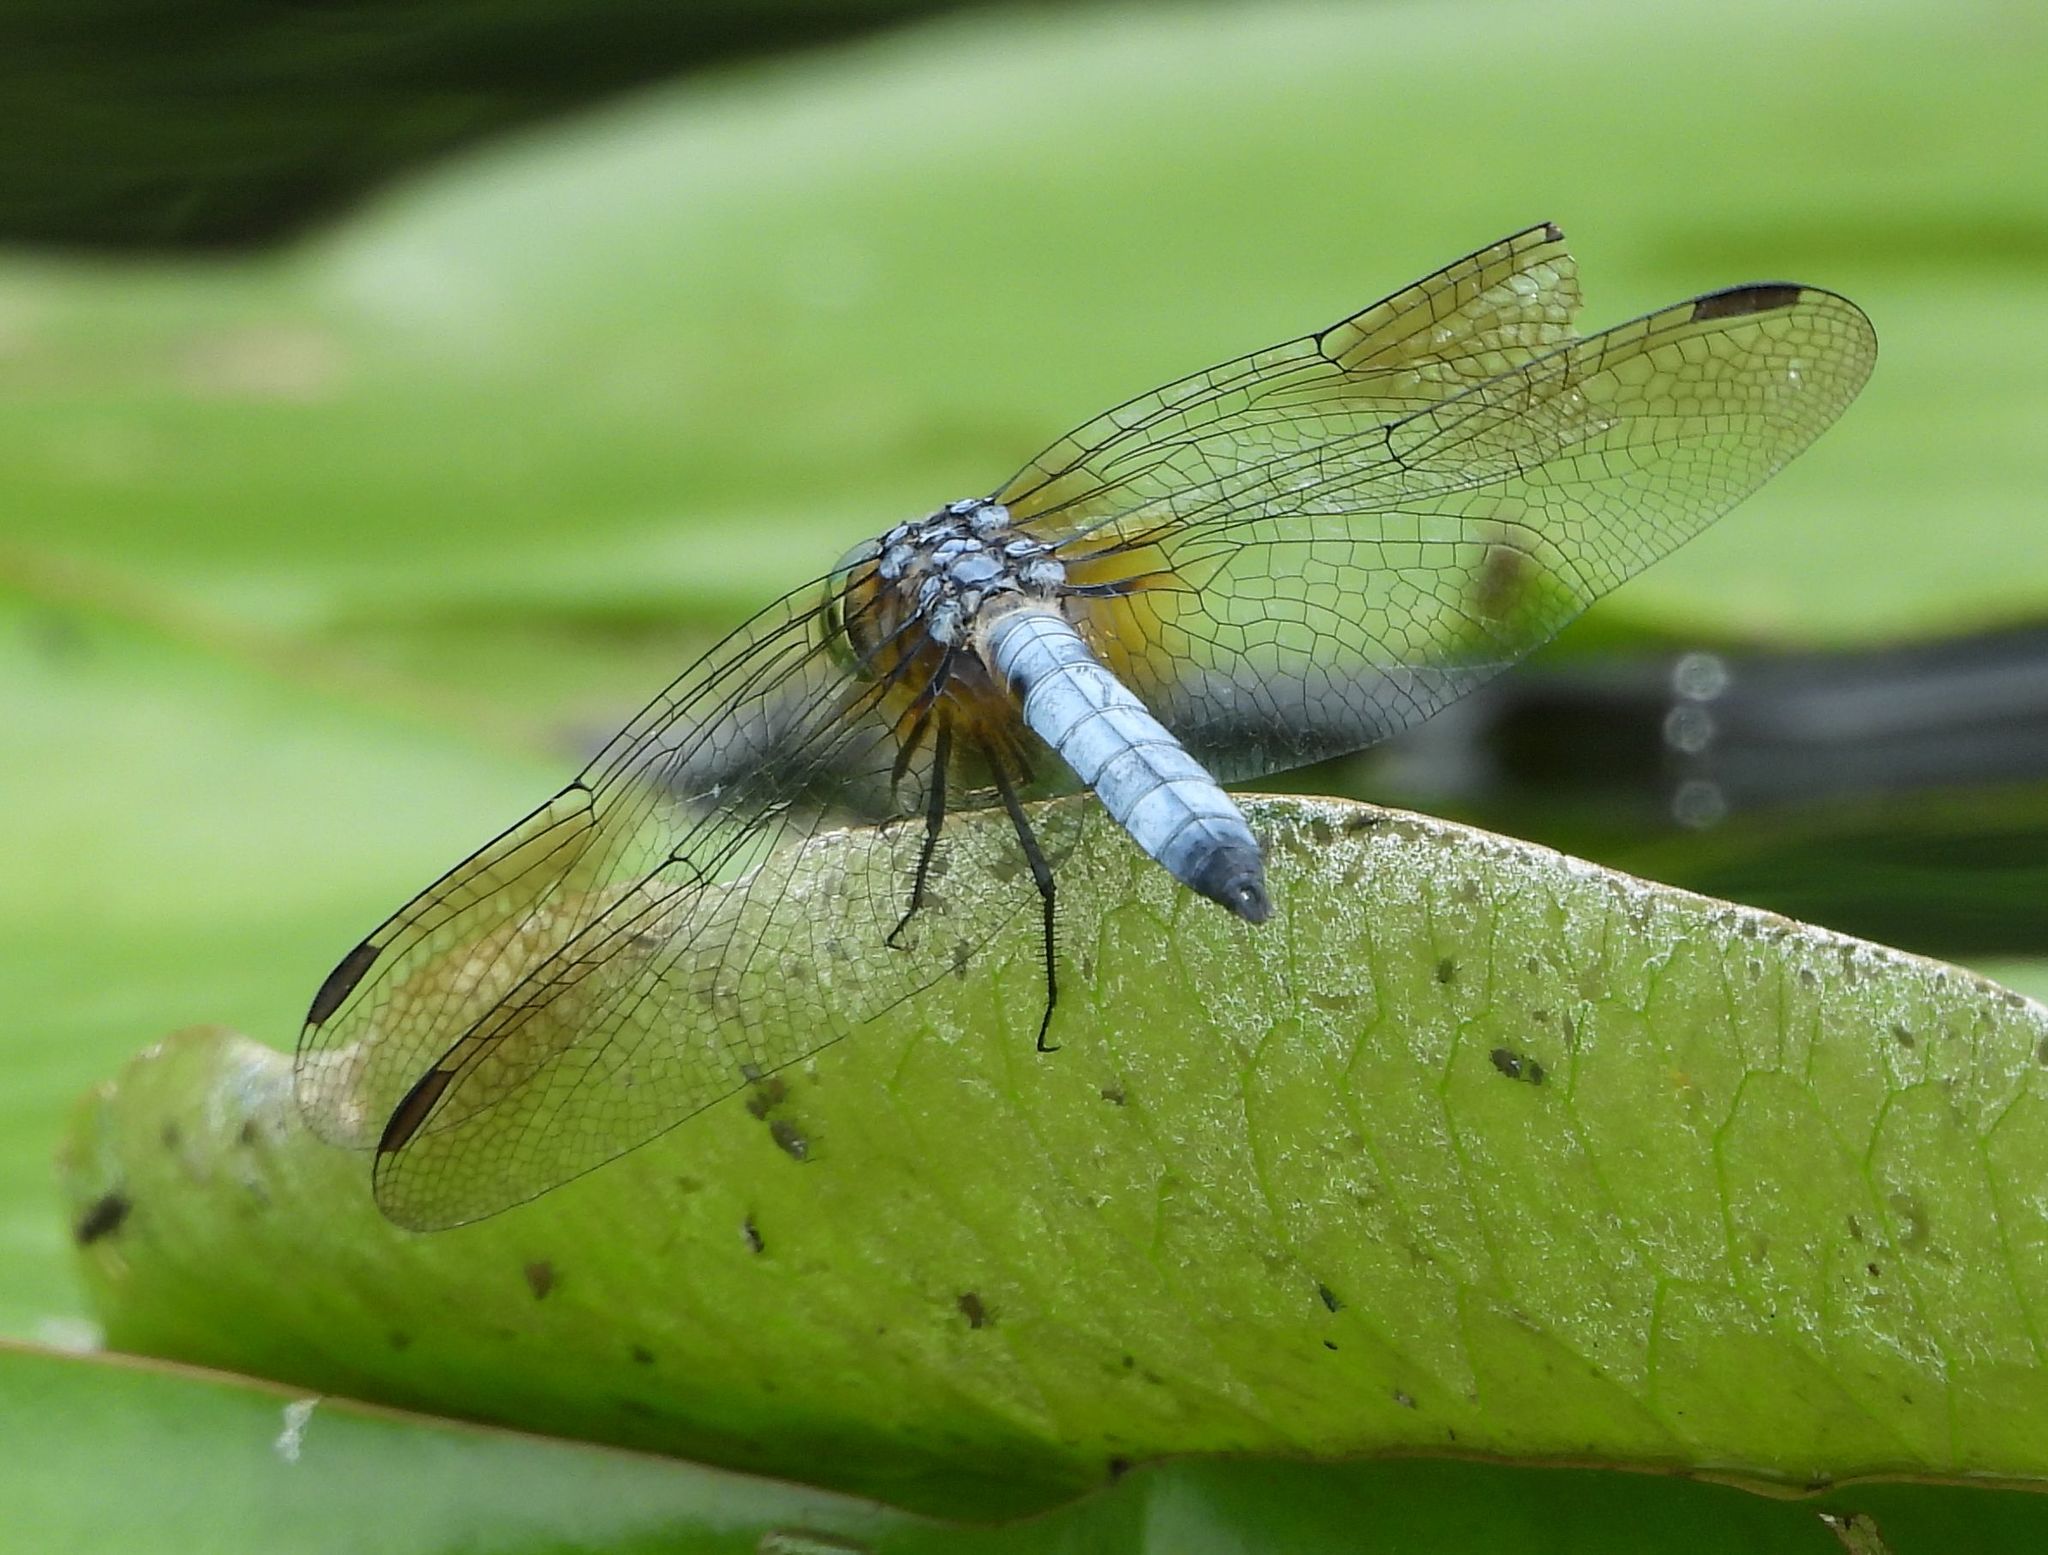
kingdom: Animalia
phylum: Arthropoda
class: Insecta
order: Odonata
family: Libellulidae
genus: Pachydiplax
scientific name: Pachydiplax longipennis
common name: Blue dasher
